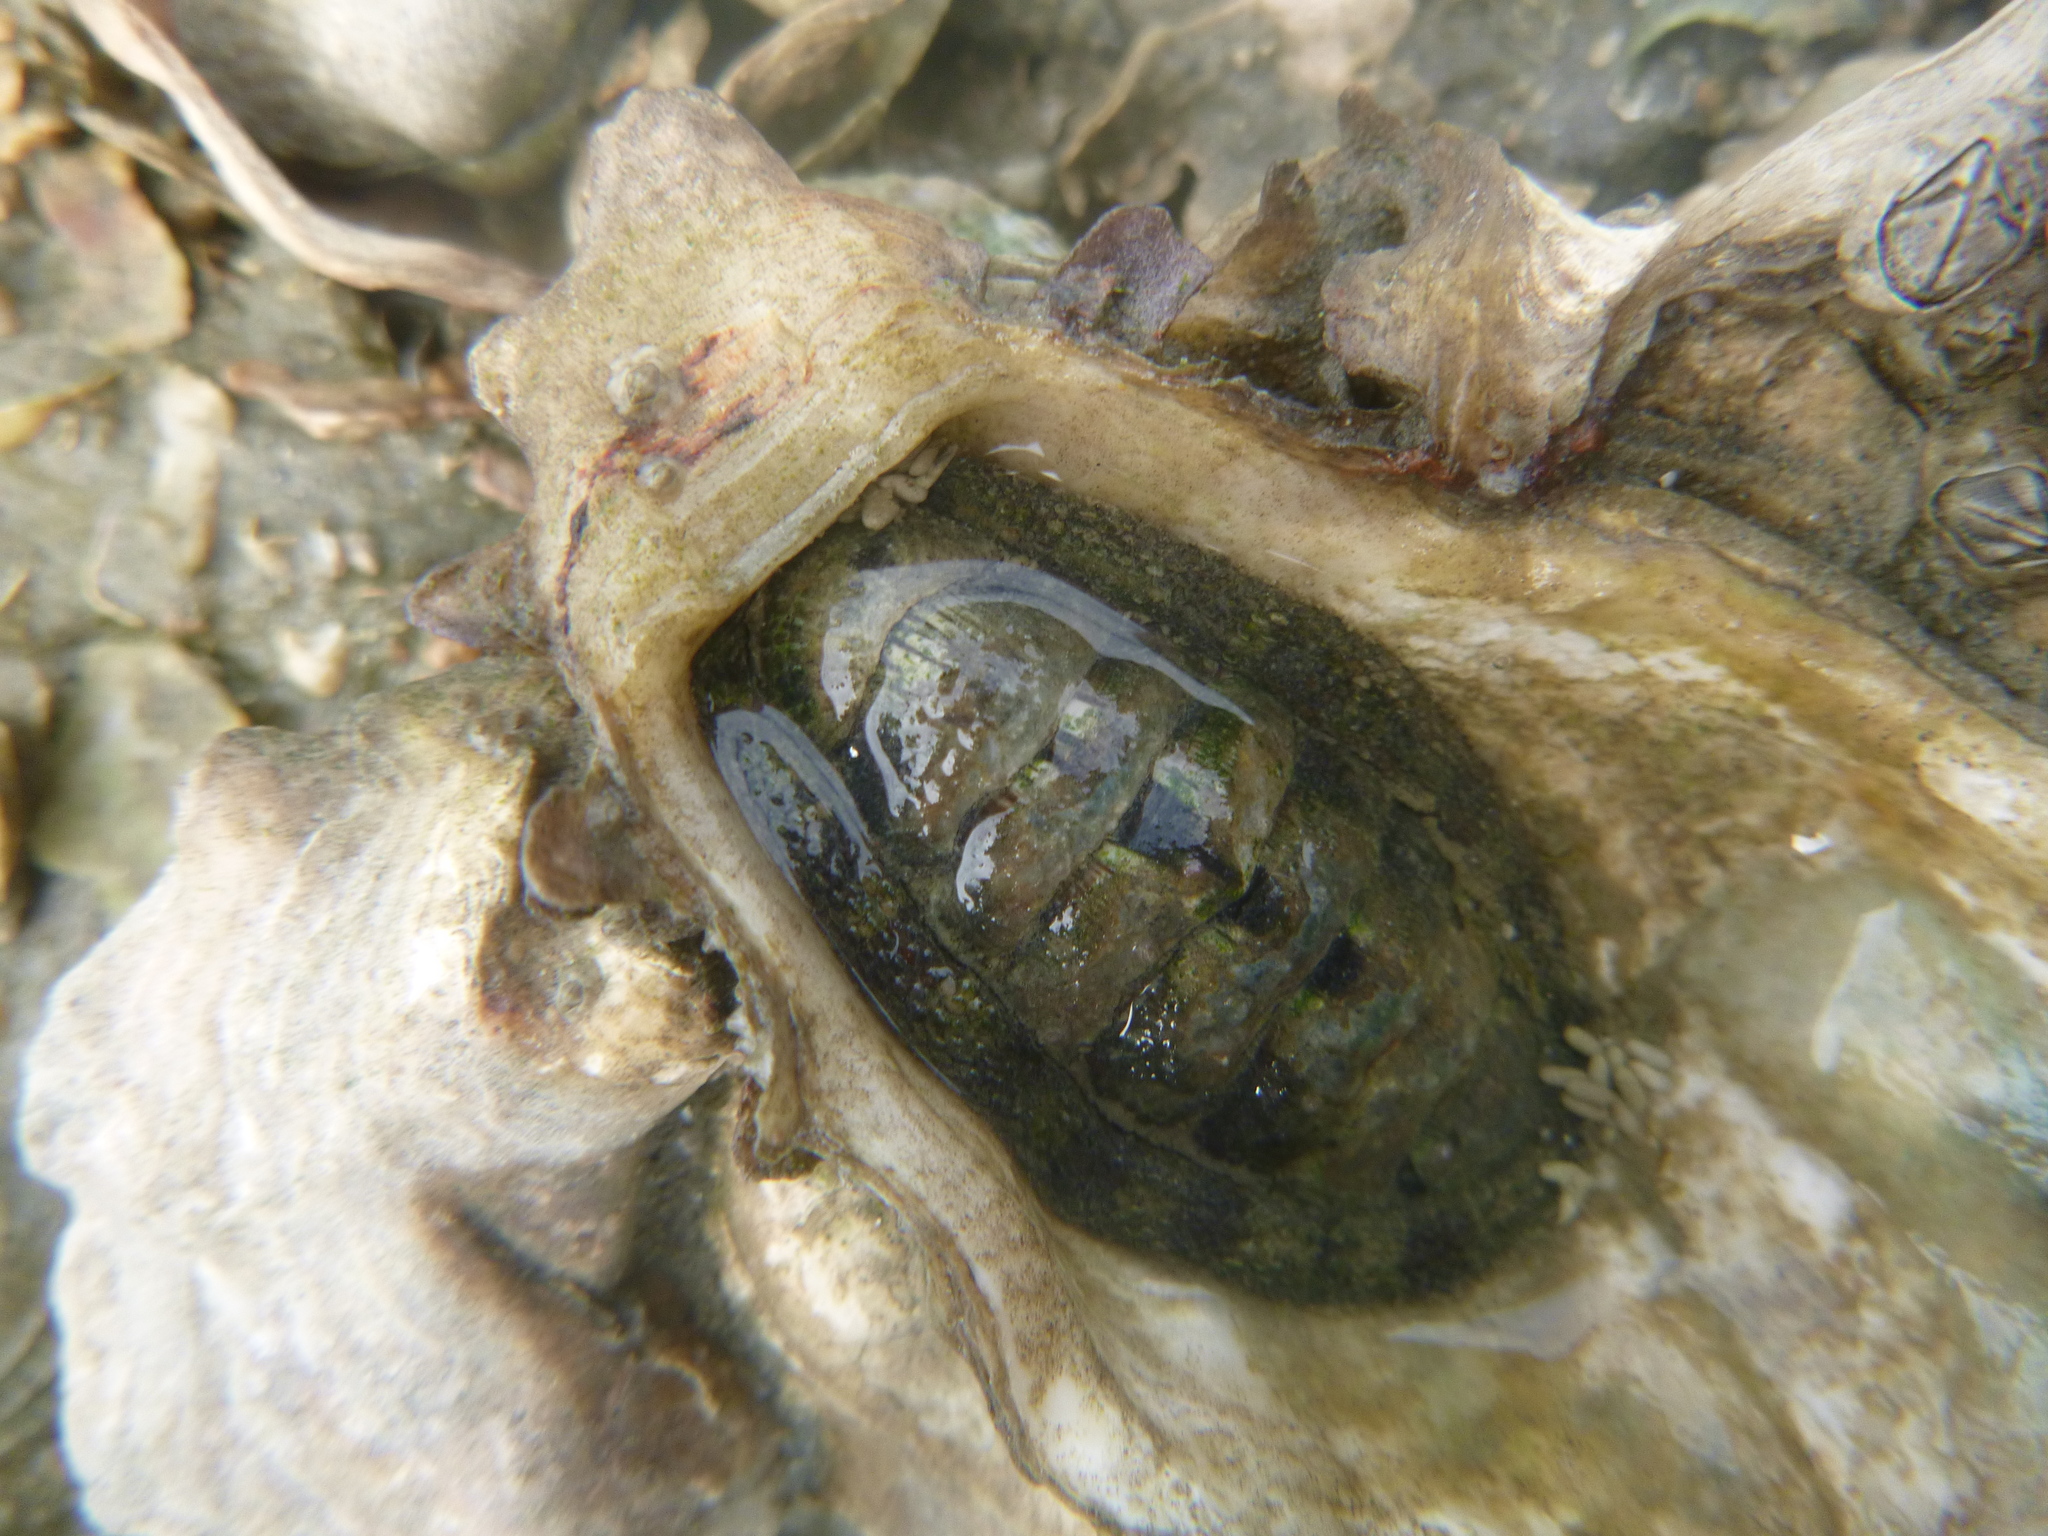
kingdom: Animalia
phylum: Mollusca
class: Polyplacophora
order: Chitonida
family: Chitonidae
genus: Sypharochiton
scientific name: Sypharochiton pelliserpentis
